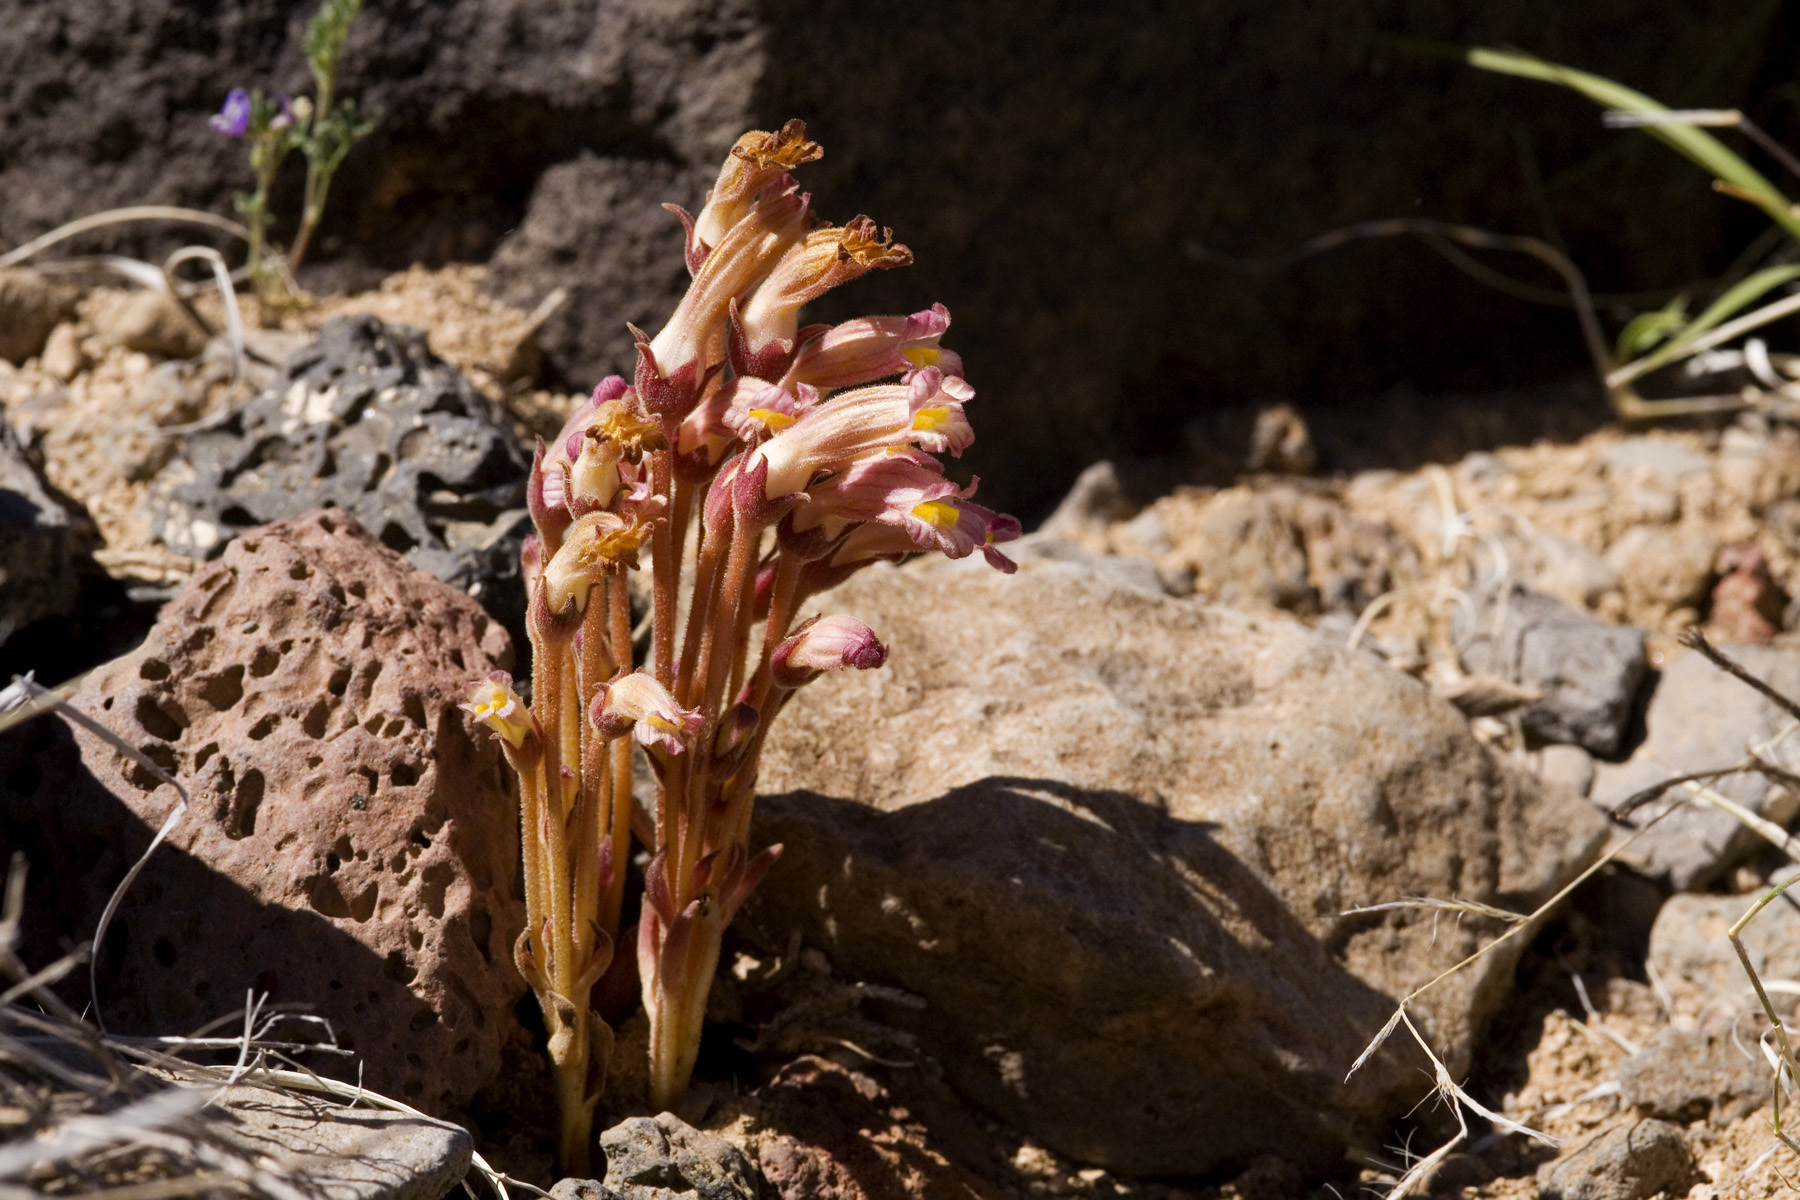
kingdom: Plantae
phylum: Tracheophyta
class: Magnoliopsida
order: Lamiales
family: Orobanchaceae
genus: Aphyllon
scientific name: Aphyllon fasciculatum
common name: Clustered broomrape
